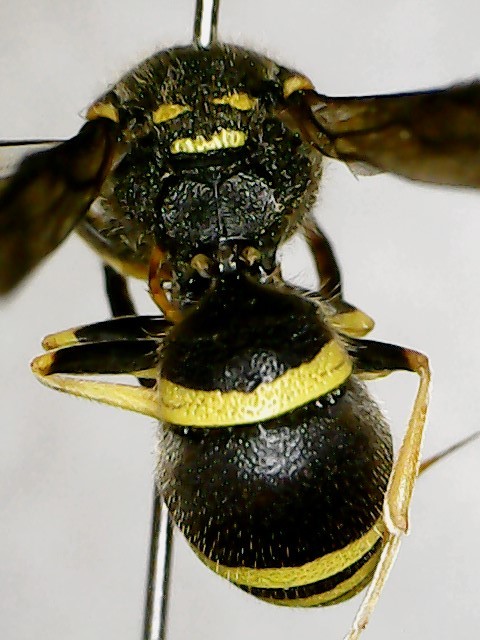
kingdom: Animalia
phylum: Arthropoda
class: Insecta
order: Hymenoptera
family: Vespidae
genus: Ancistrocerus
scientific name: Ancistrocerus
